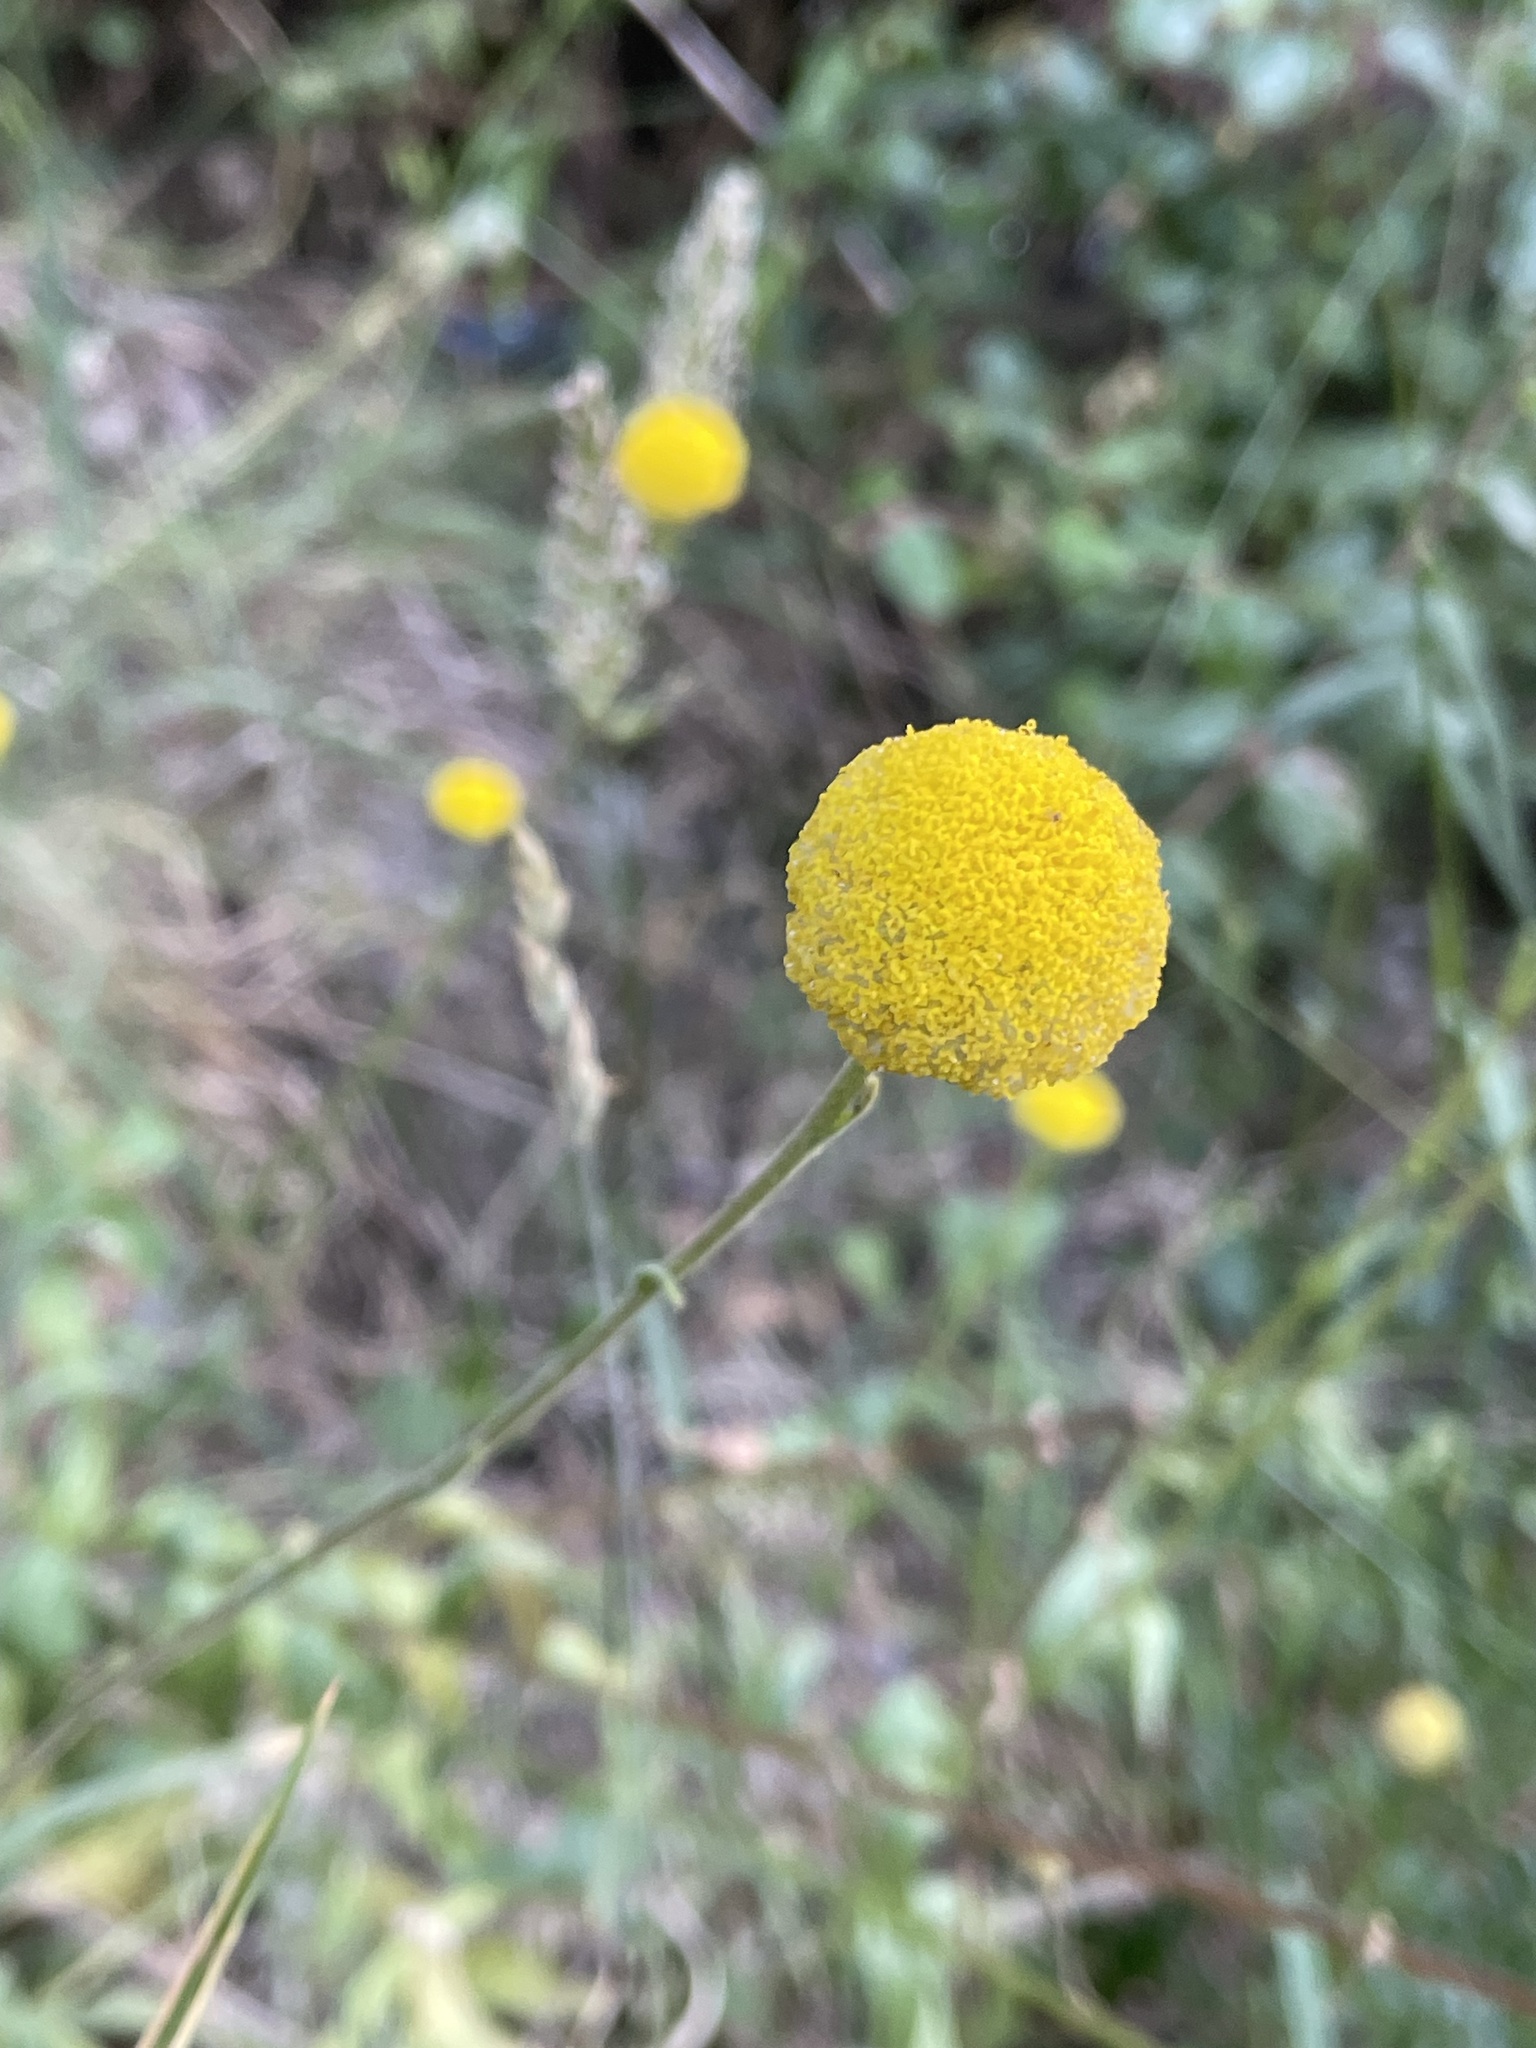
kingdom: Plantae
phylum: Tracheophyta
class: Magnoliopsida
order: Asterales
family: Asteraceae
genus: Craspedia
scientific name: Craspedia variabilis
